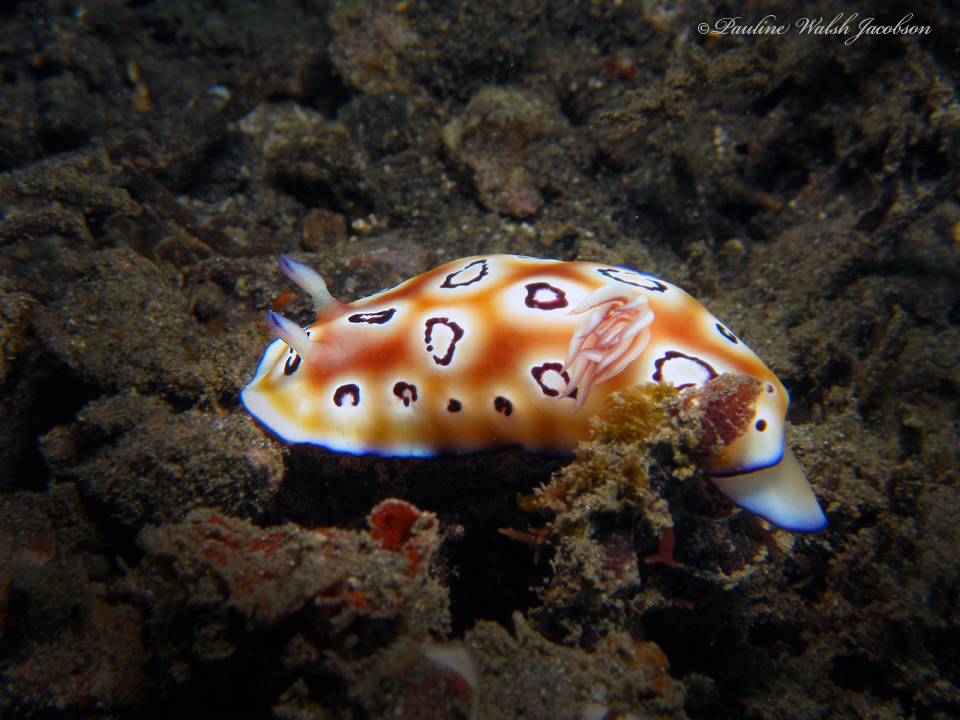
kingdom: Animalia
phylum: Mollusca
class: Gastropoda
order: Nudibranchia
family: Chromodorididae
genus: Goniobranchus
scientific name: Goniobranchus leopardus
